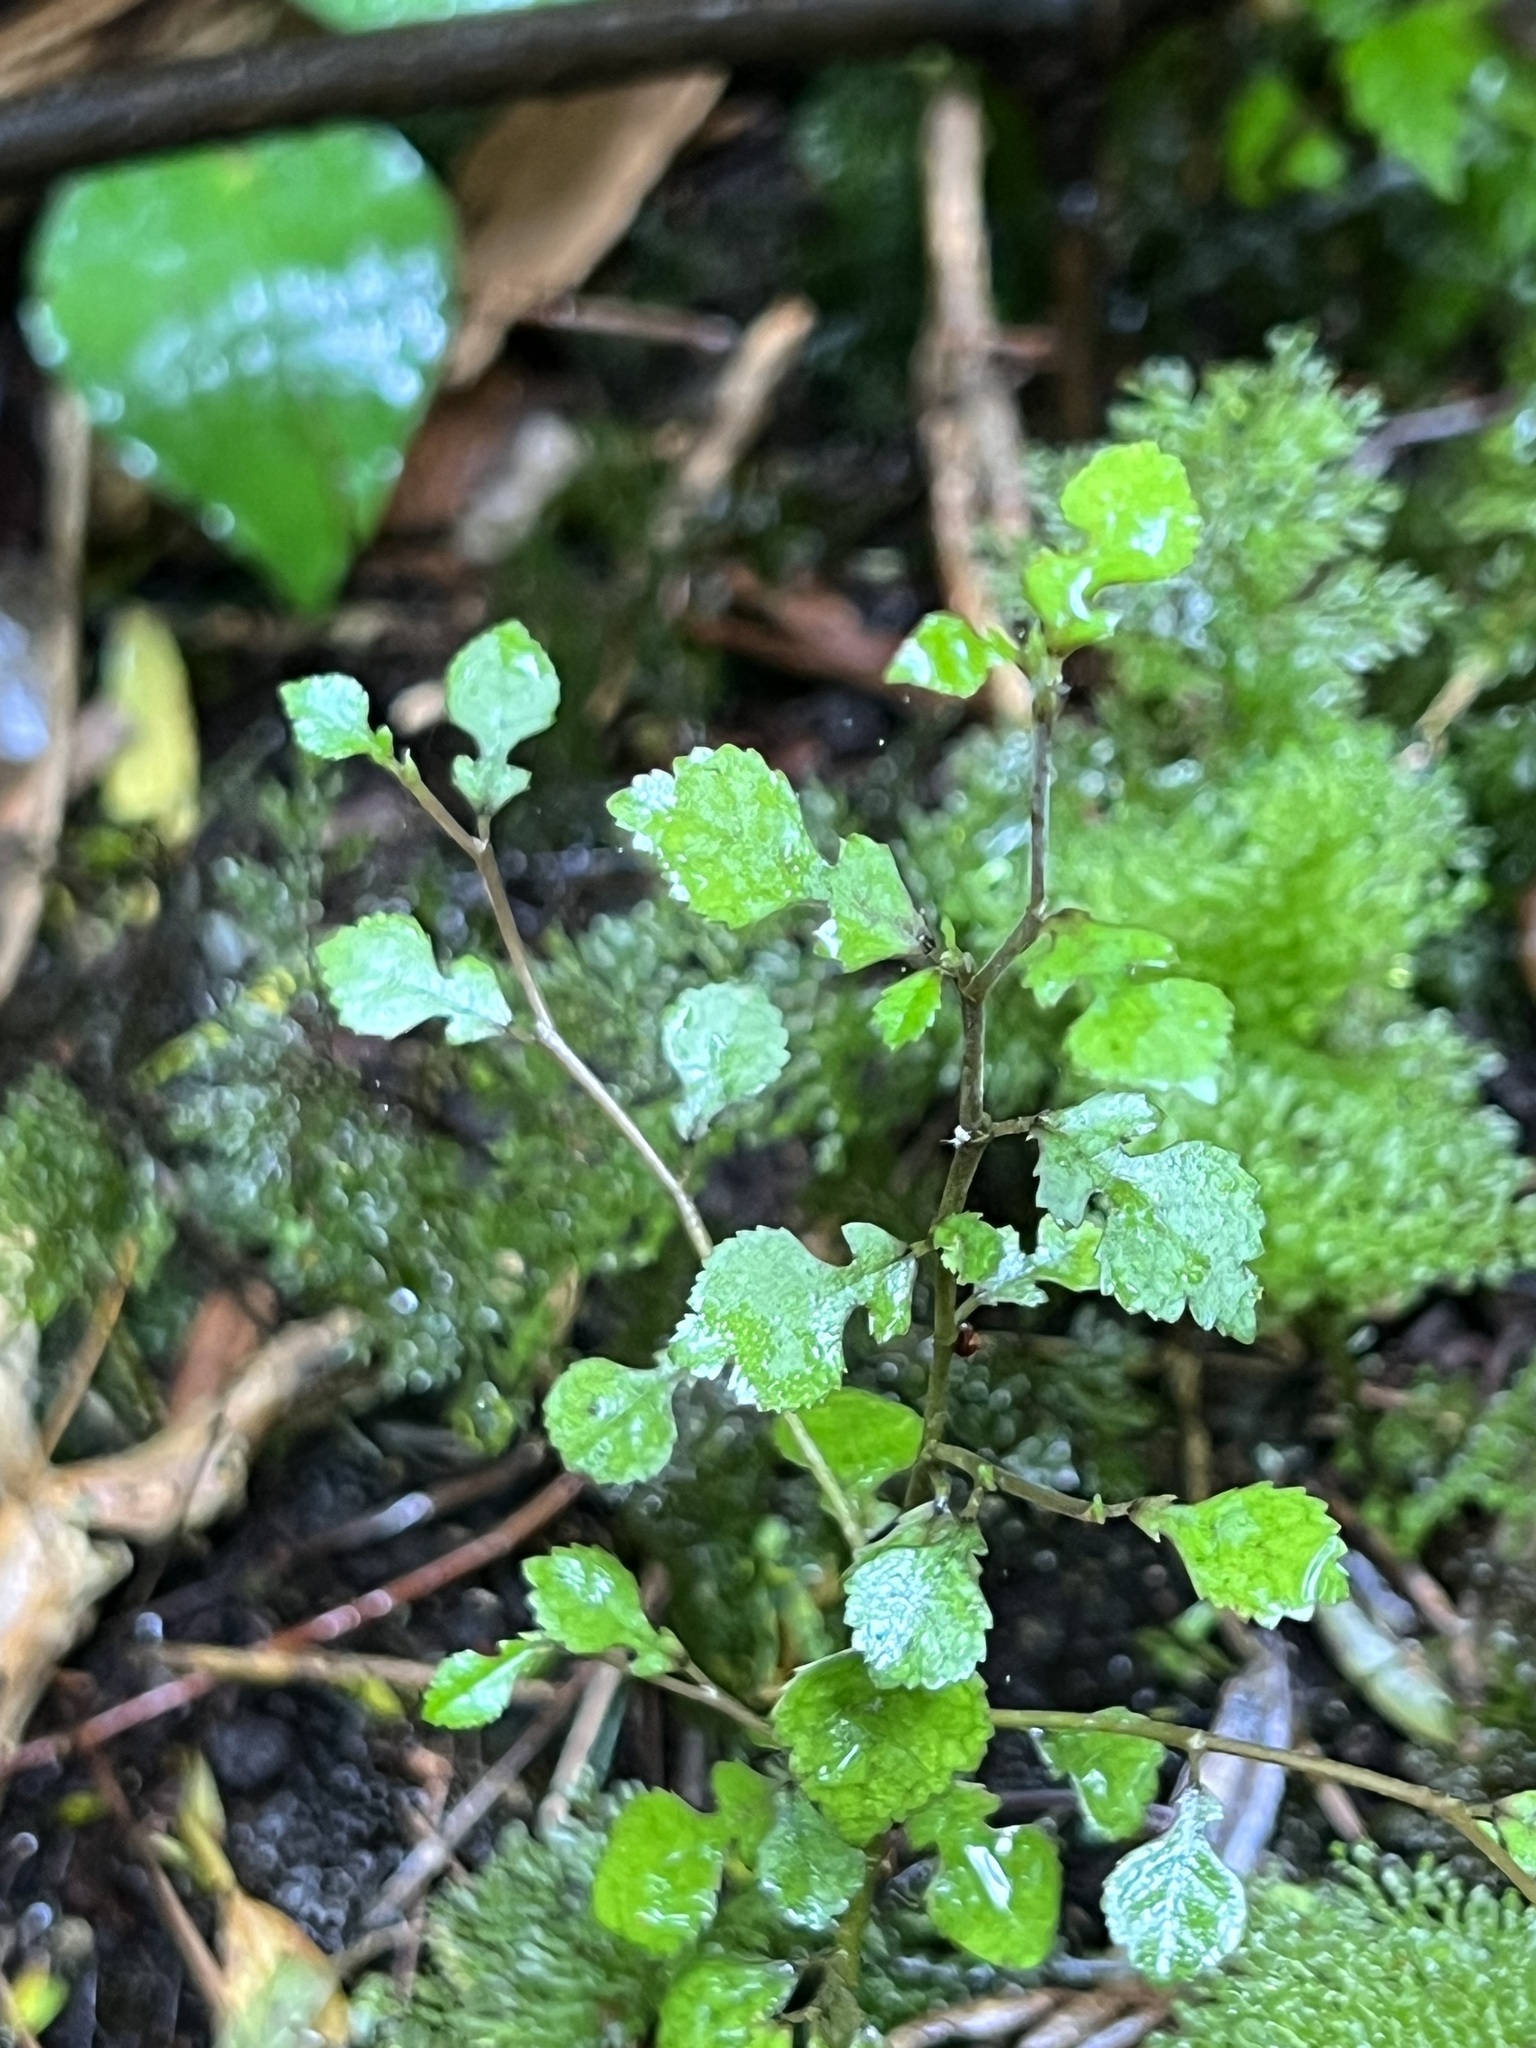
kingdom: Plantae
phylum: Tracheophyta
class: Magnoliopsida
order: Rosales
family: Moraceae
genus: Paratrophis
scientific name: Paratrophis microphylla
